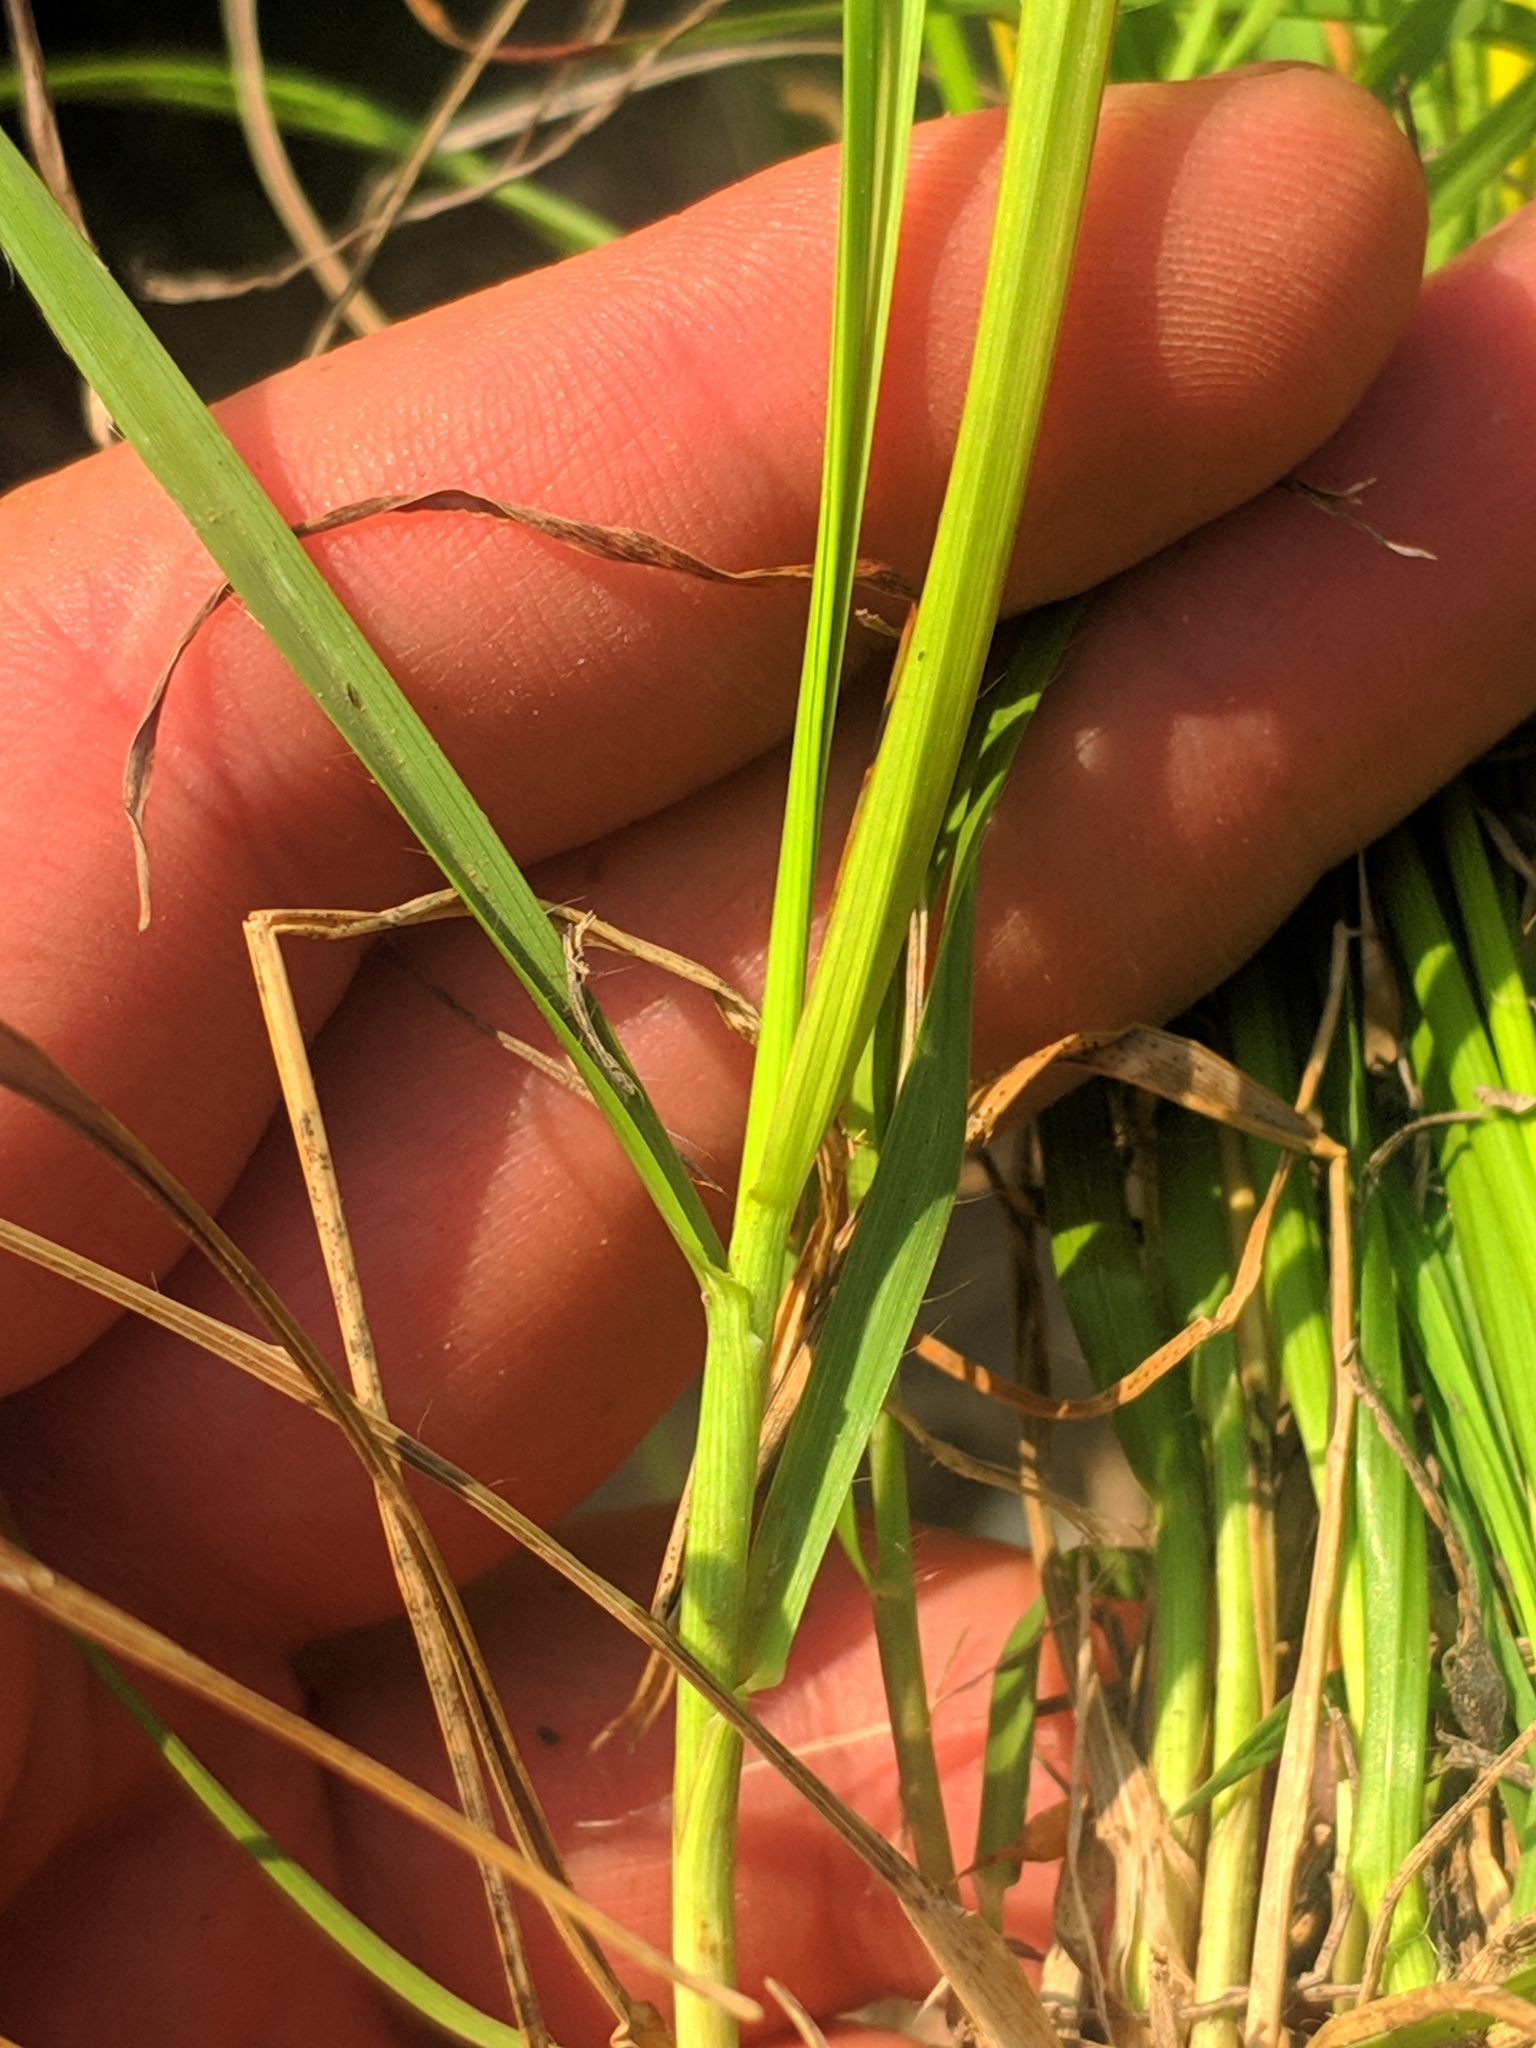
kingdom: Plantae
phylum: Tracheophyta
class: Liliopsida
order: Poales
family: Poaceae
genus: Bromus
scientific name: Bromus erectus
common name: Erect brome
